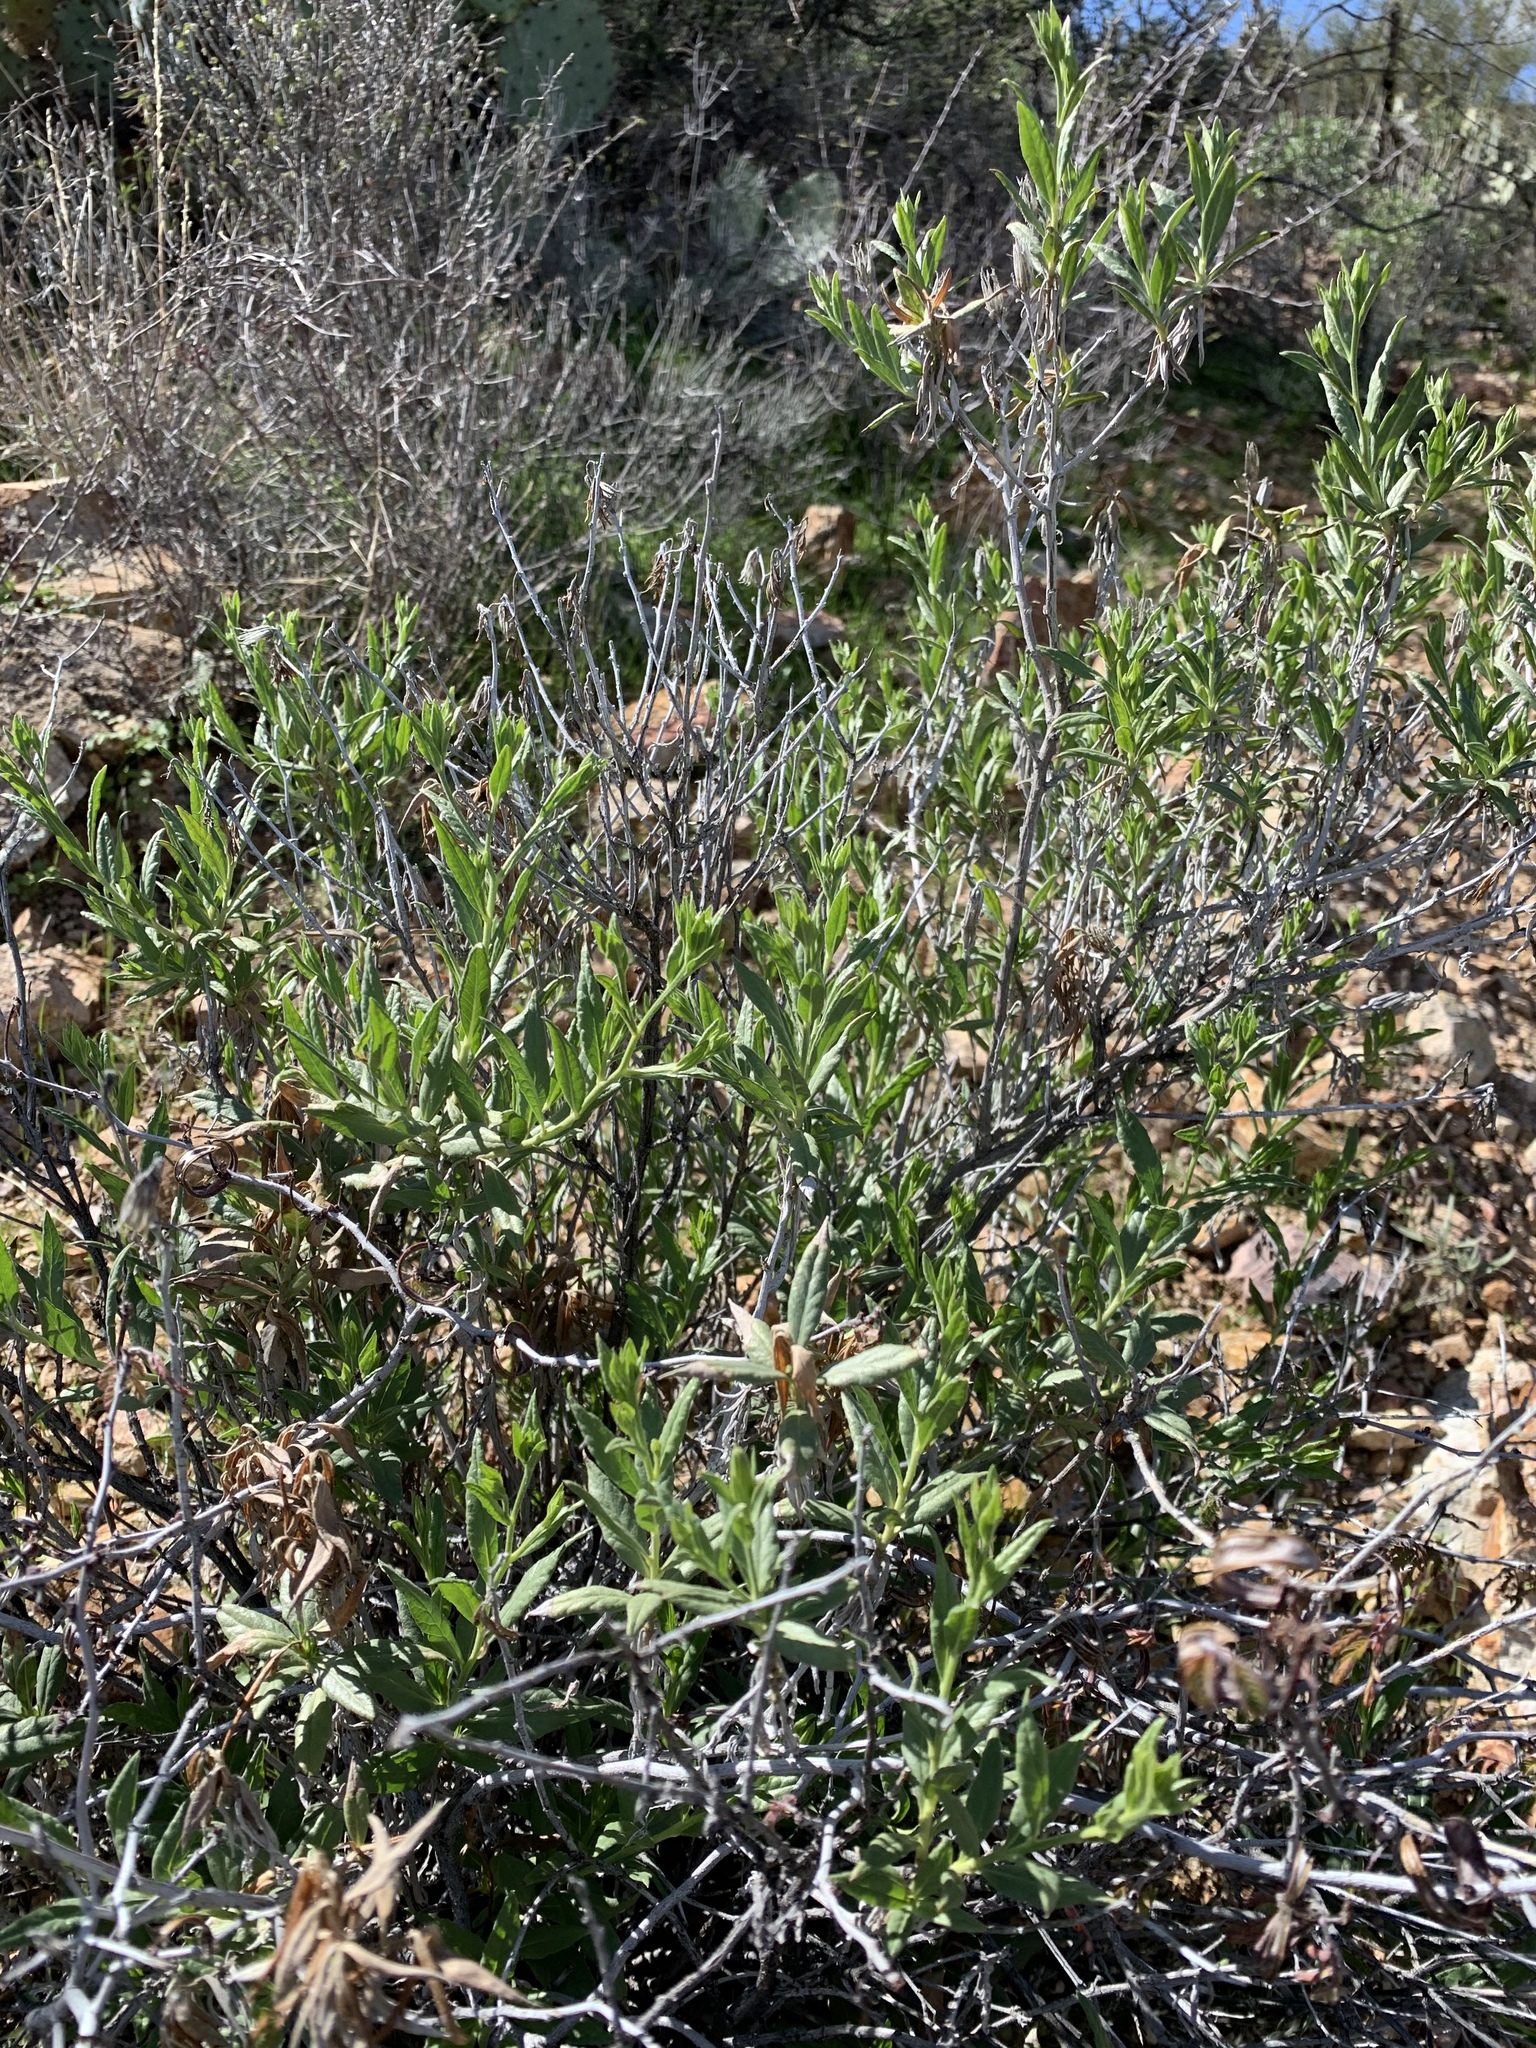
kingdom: Plantae
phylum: Tracheophyta
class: Magnoliopsida
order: Asterales
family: Asteraceae
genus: Trixis
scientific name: Trixis californica
